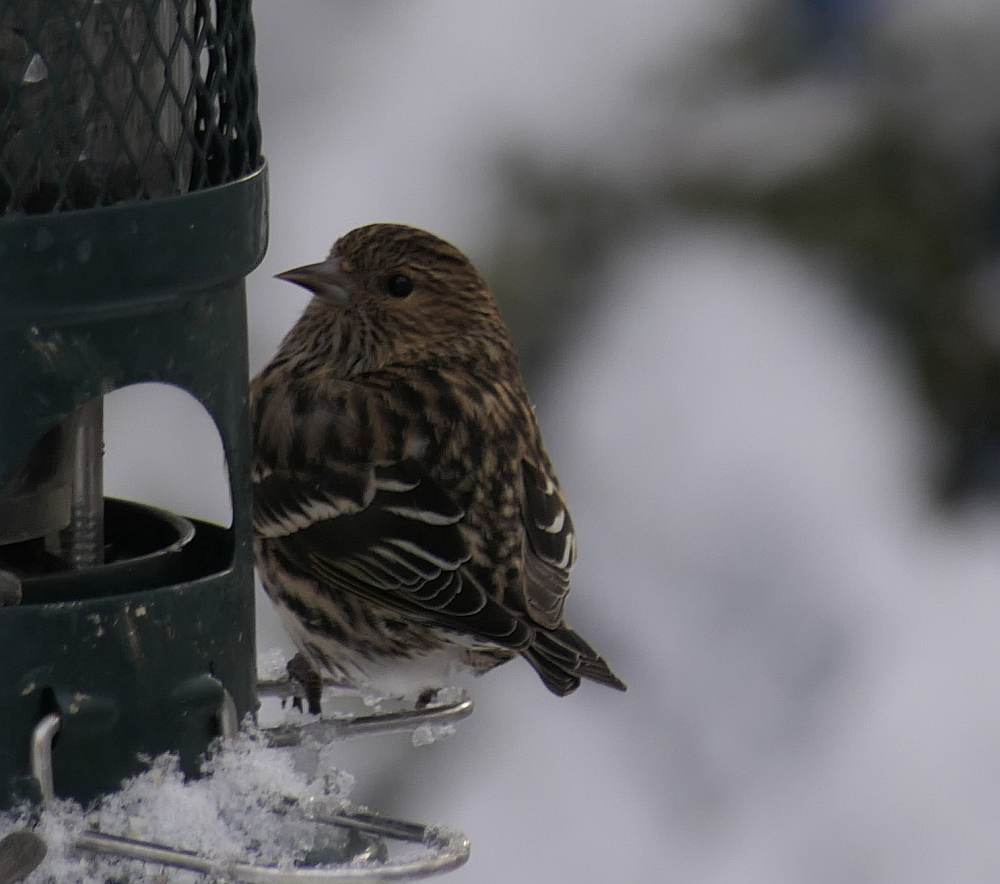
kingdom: Animalia
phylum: Chordata
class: Aves
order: Passeriformes
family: Fringillidae
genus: Spinus
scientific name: Spinus pinus
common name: Pine siskin
